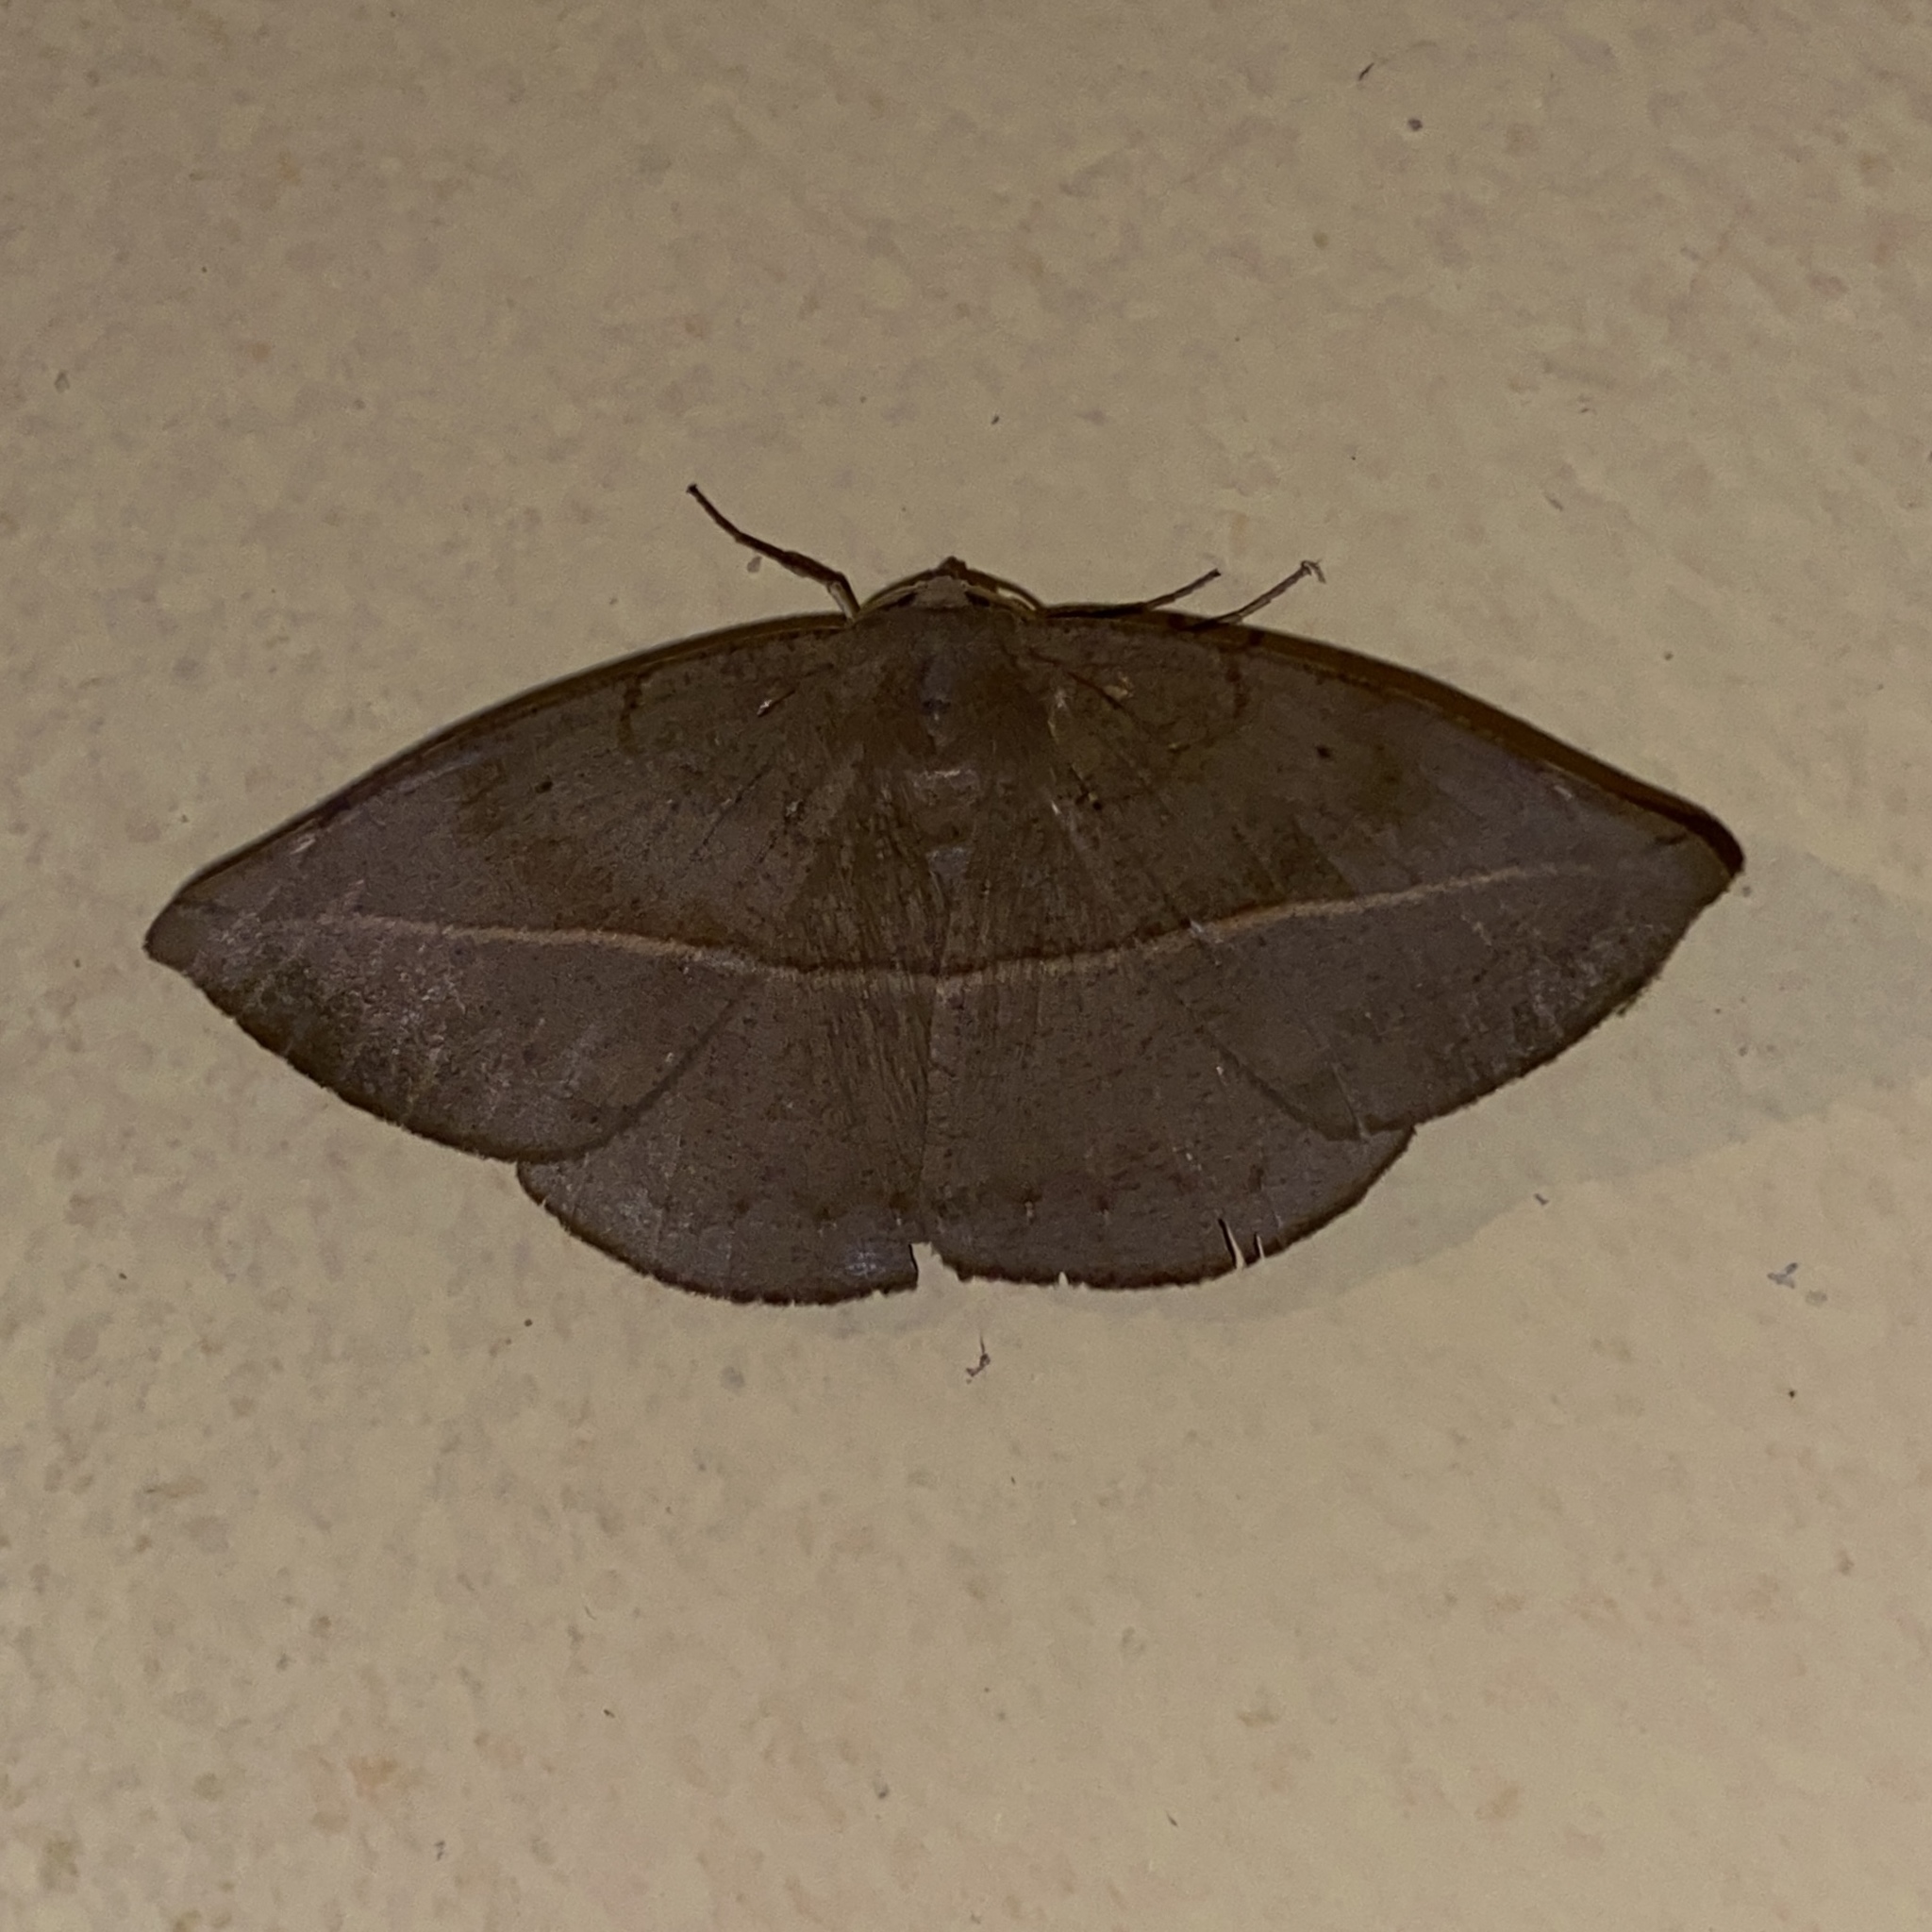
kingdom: Animalia
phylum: Arthropoda
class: Insecta
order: Lepidoptera
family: Geometridae
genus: Oxydia
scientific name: Oxydia apidania
